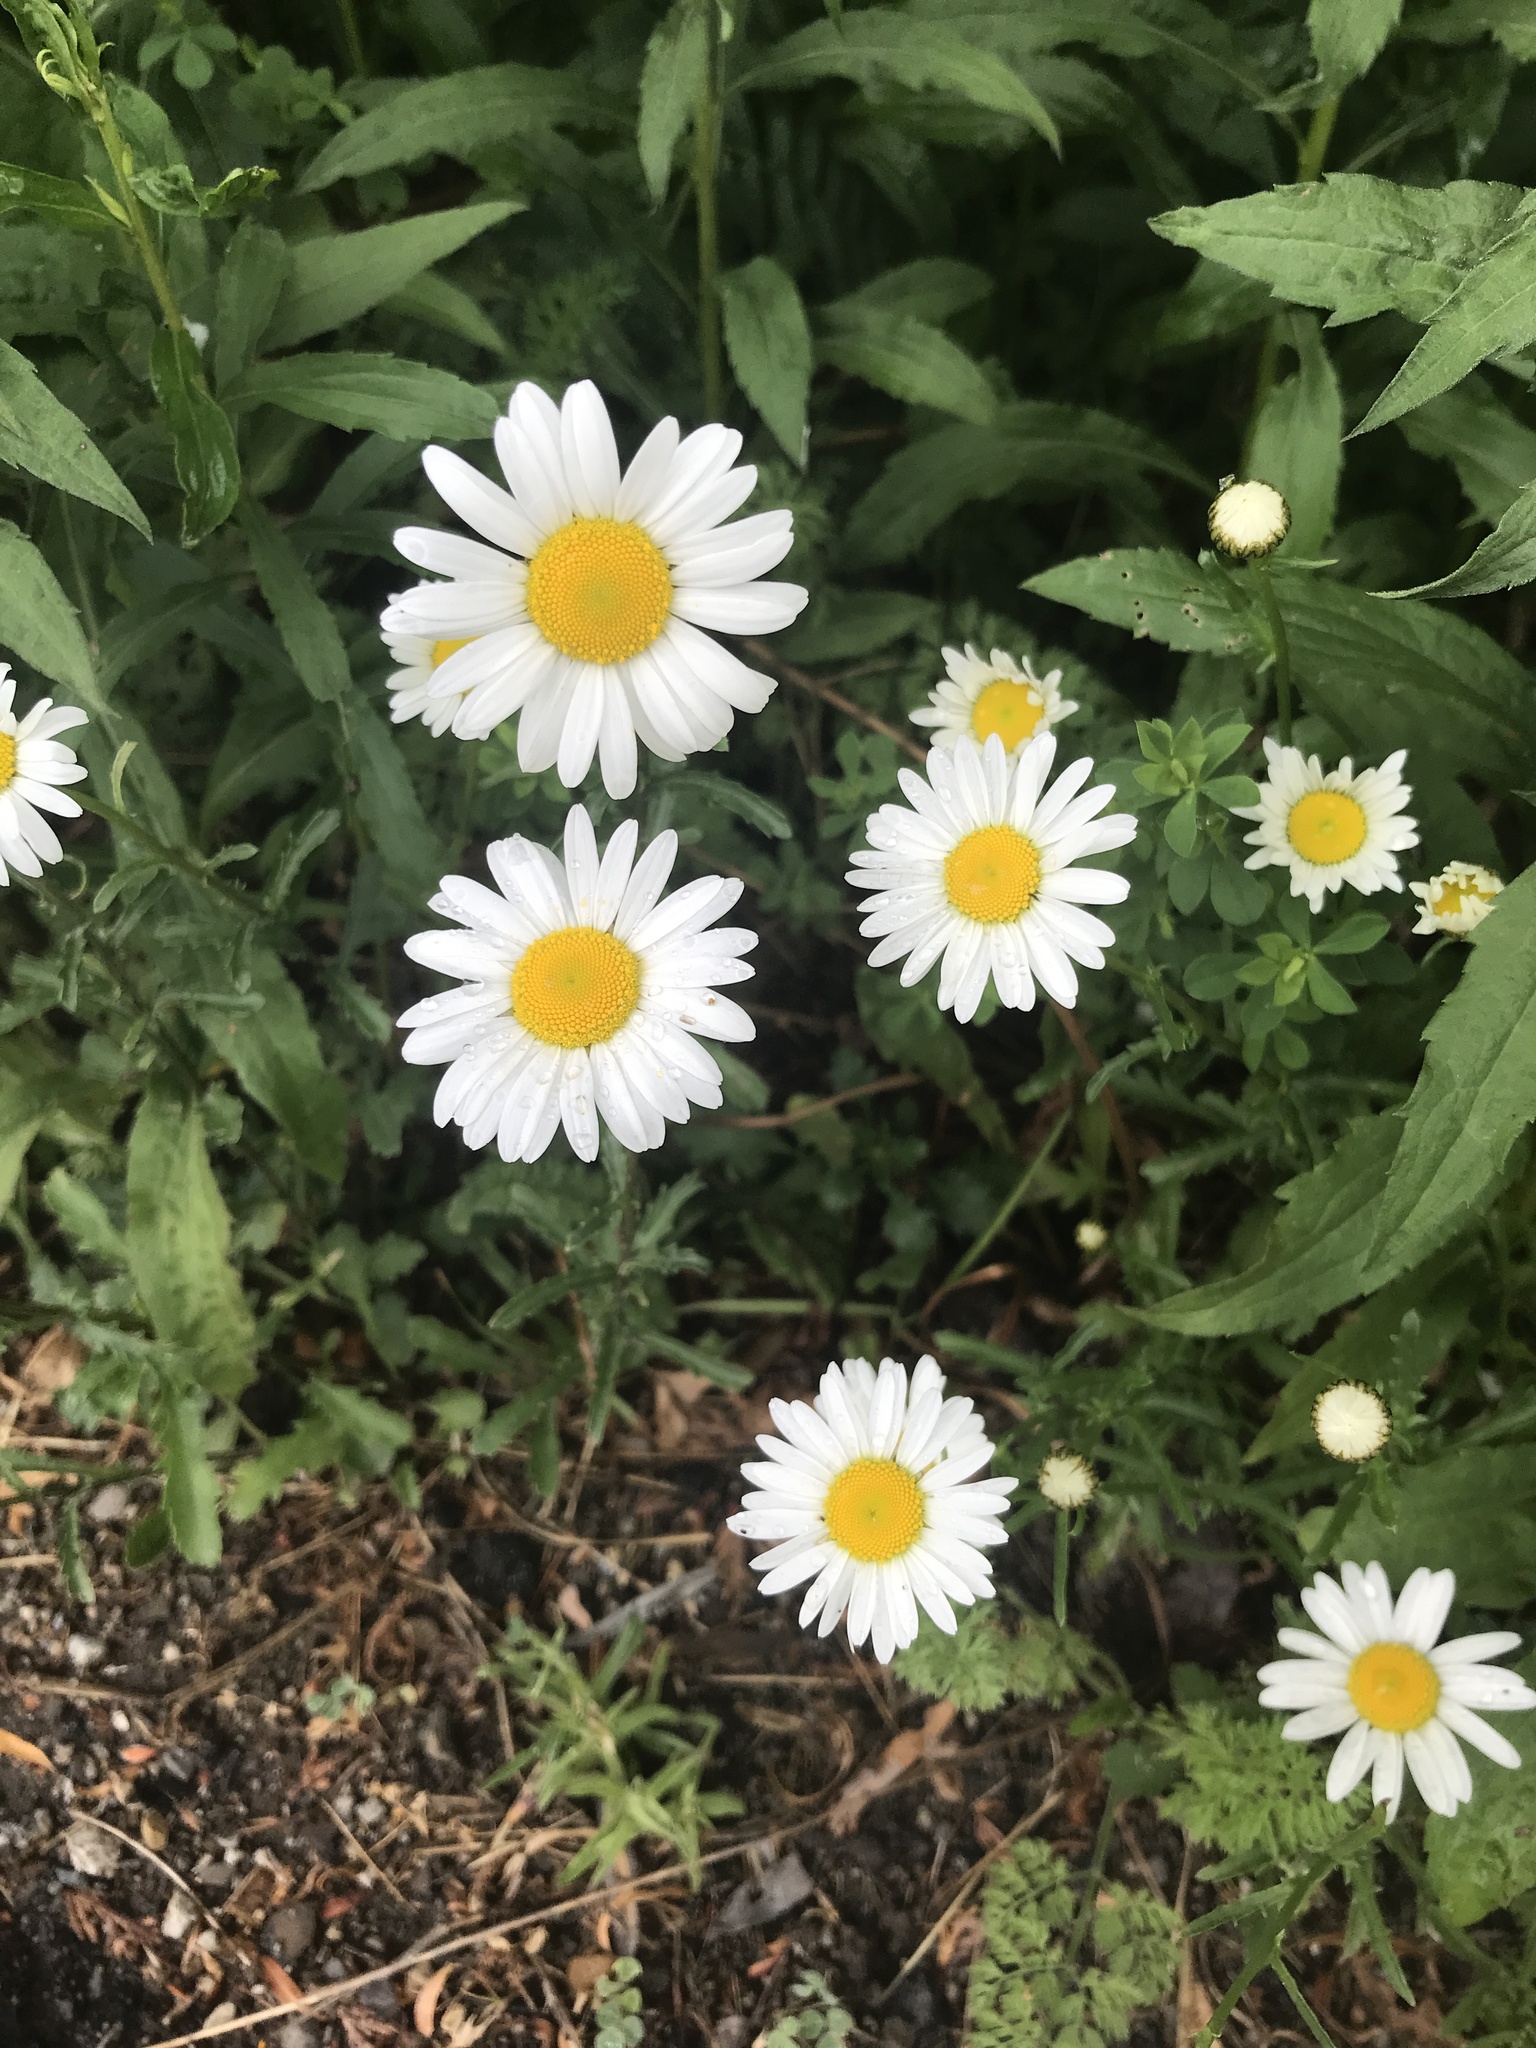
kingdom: Plantae
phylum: Tracheophyta
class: Magnoliopsida
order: Asterales
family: Asteraceae
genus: Leucanthemum
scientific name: Leucanthemum vulgare
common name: Oxeye daisy
